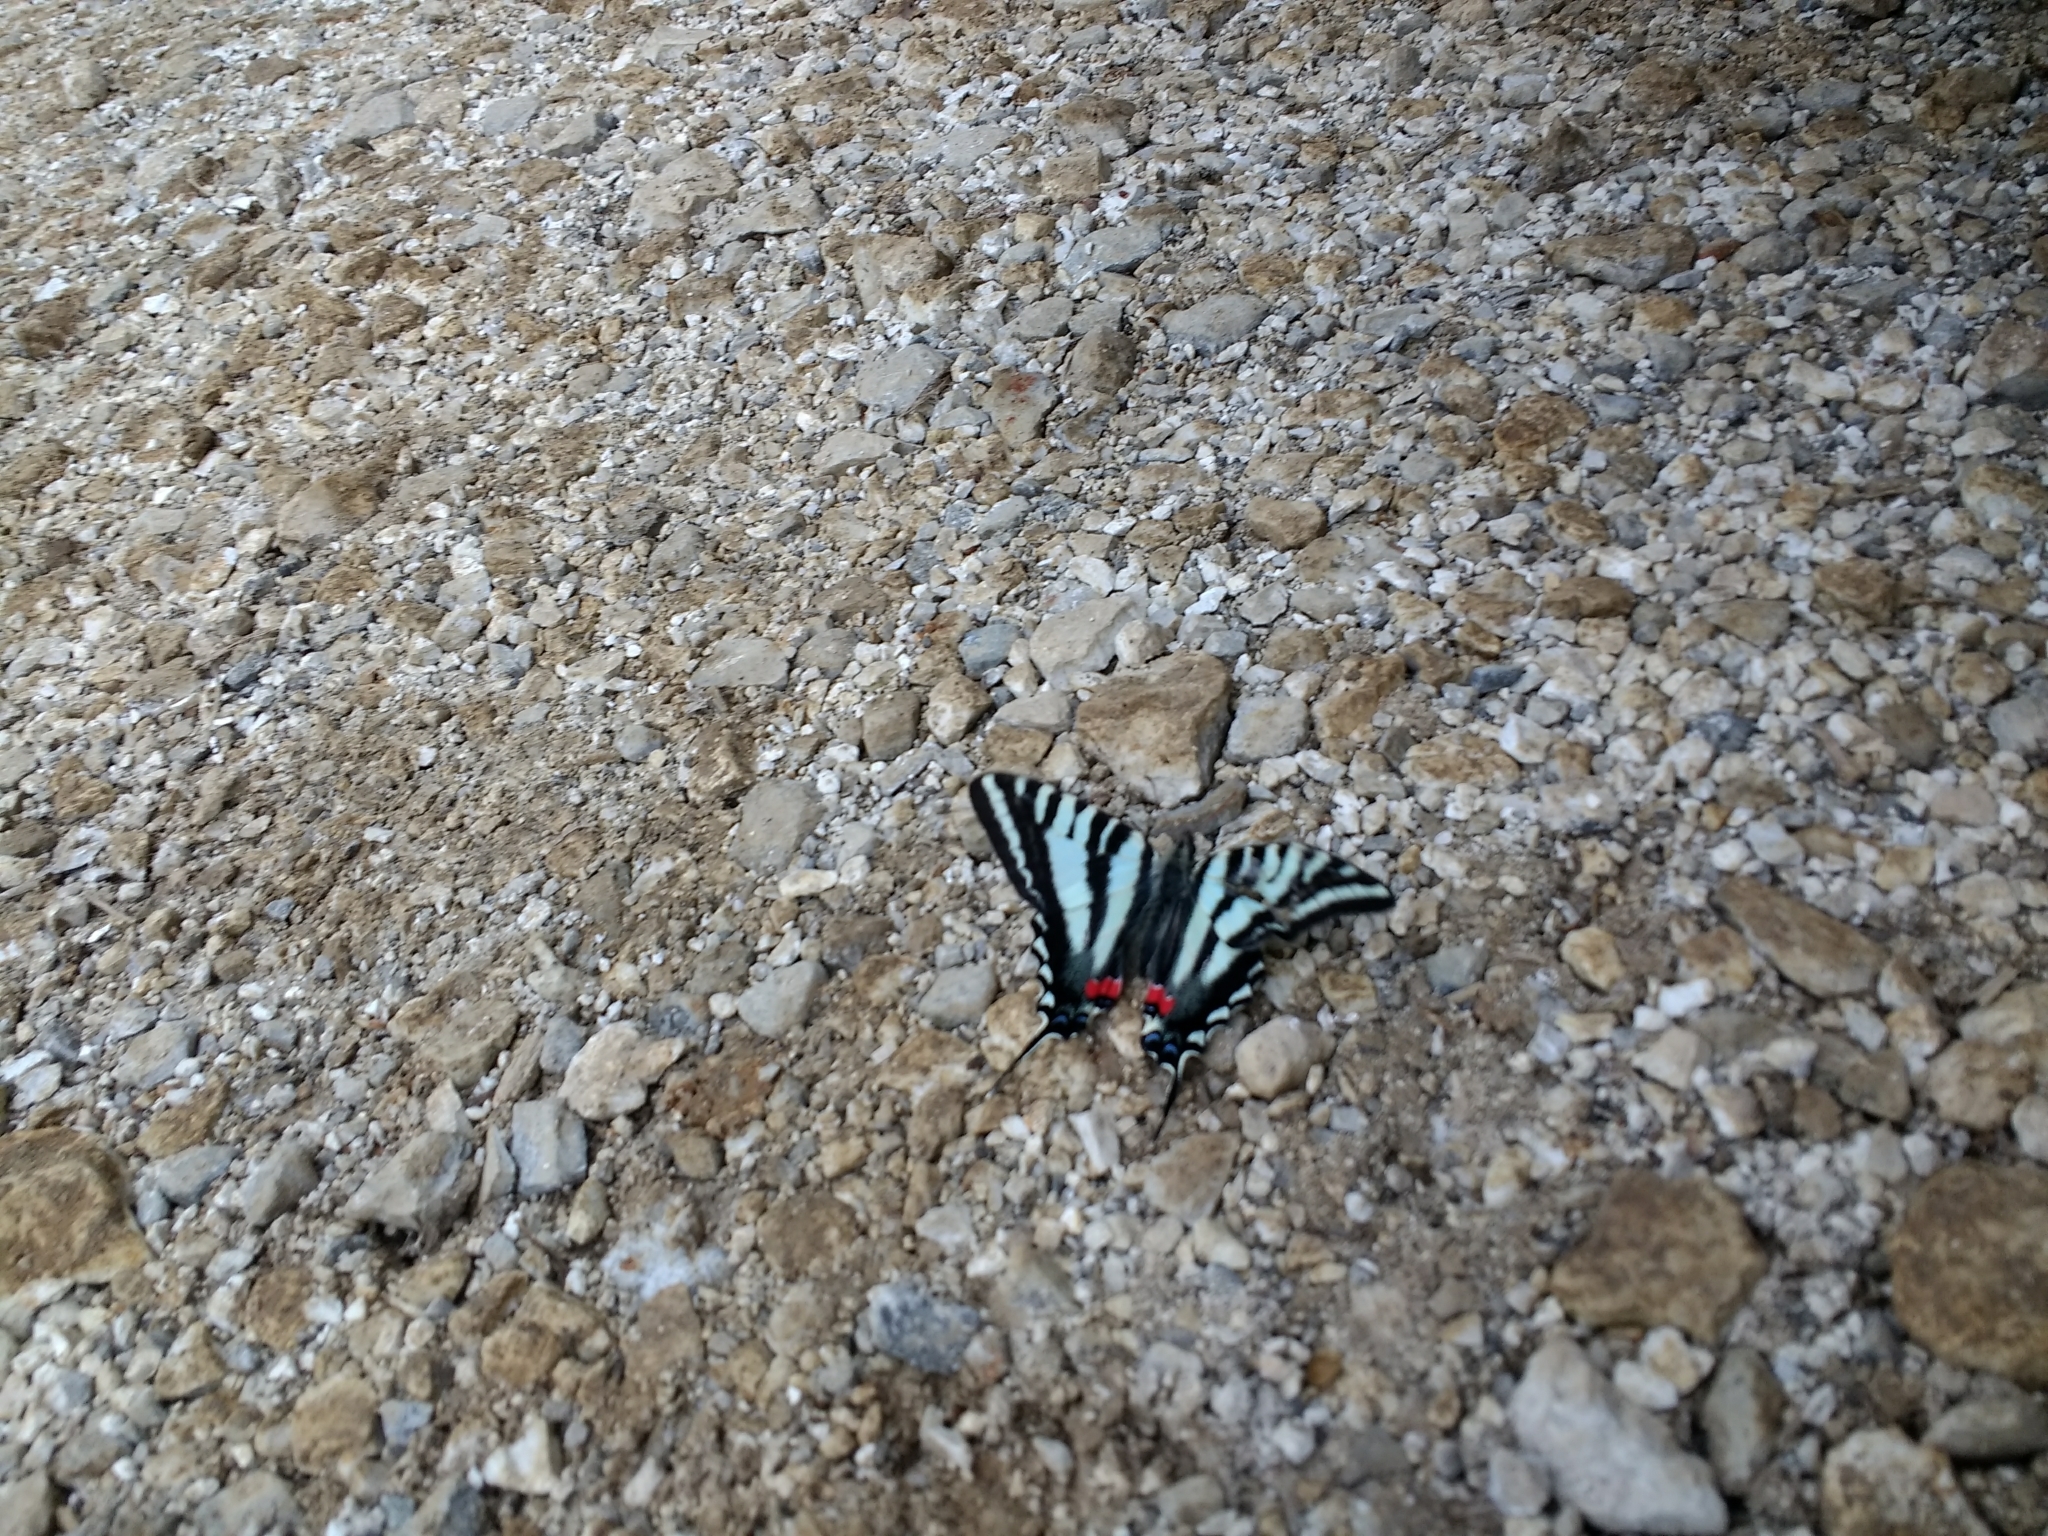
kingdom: Animalia
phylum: Arthropoda
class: Insecta
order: Lepidoptera
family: Papilionidae
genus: Protographium
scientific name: Protographium marcellus
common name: Zebra swallowtail
